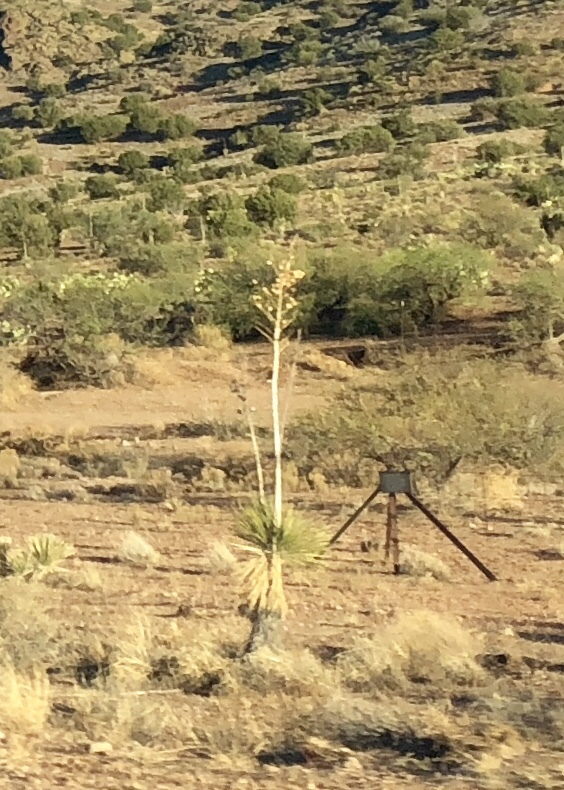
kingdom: Plantae
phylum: Tracheophyta
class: Liliopsida
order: Asparagales
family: Asparagaceae
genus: Yucca
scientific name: Yucca elata
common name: Palmella
